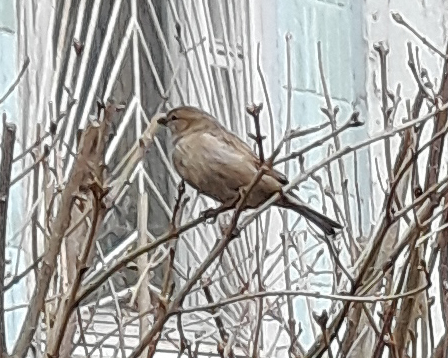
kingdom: Animalia
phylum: Chordata
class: Aves
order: Passeriformes
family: Passeridae
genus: Passer
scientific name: Passer domesticus
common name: House sparrow
